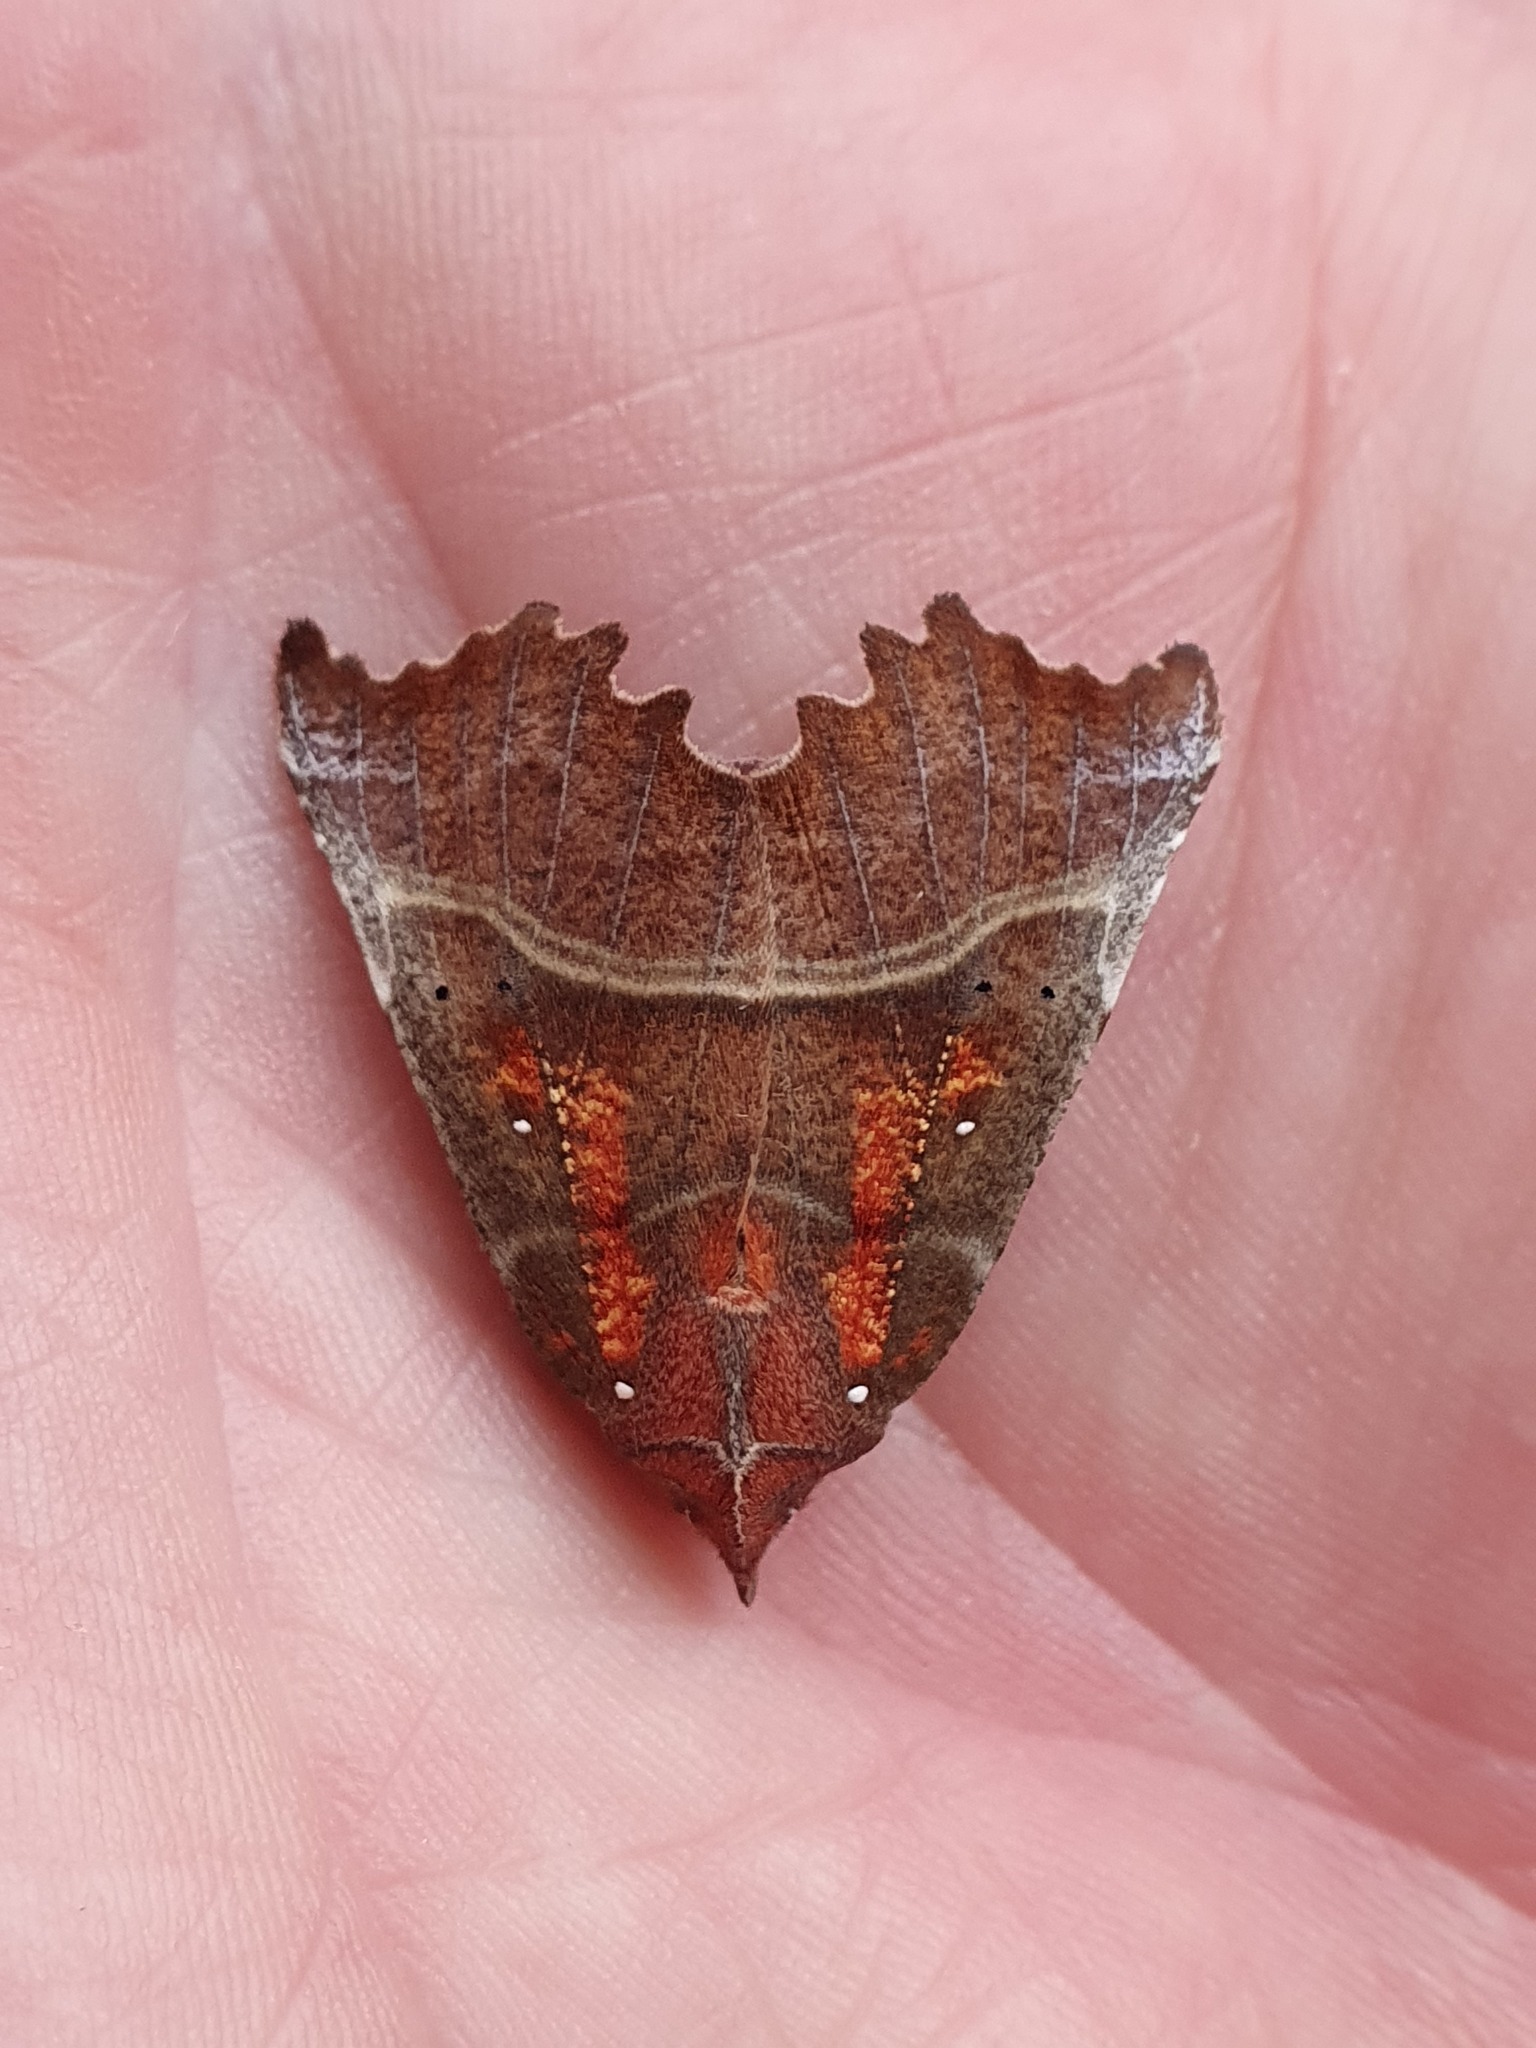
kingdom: Animalia
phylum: Arthropoda
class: Insecta
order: Lepidoptera
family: Erebidae
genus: Scoliopteryx
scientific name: Scoliopteryx libatrix
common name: Herald
